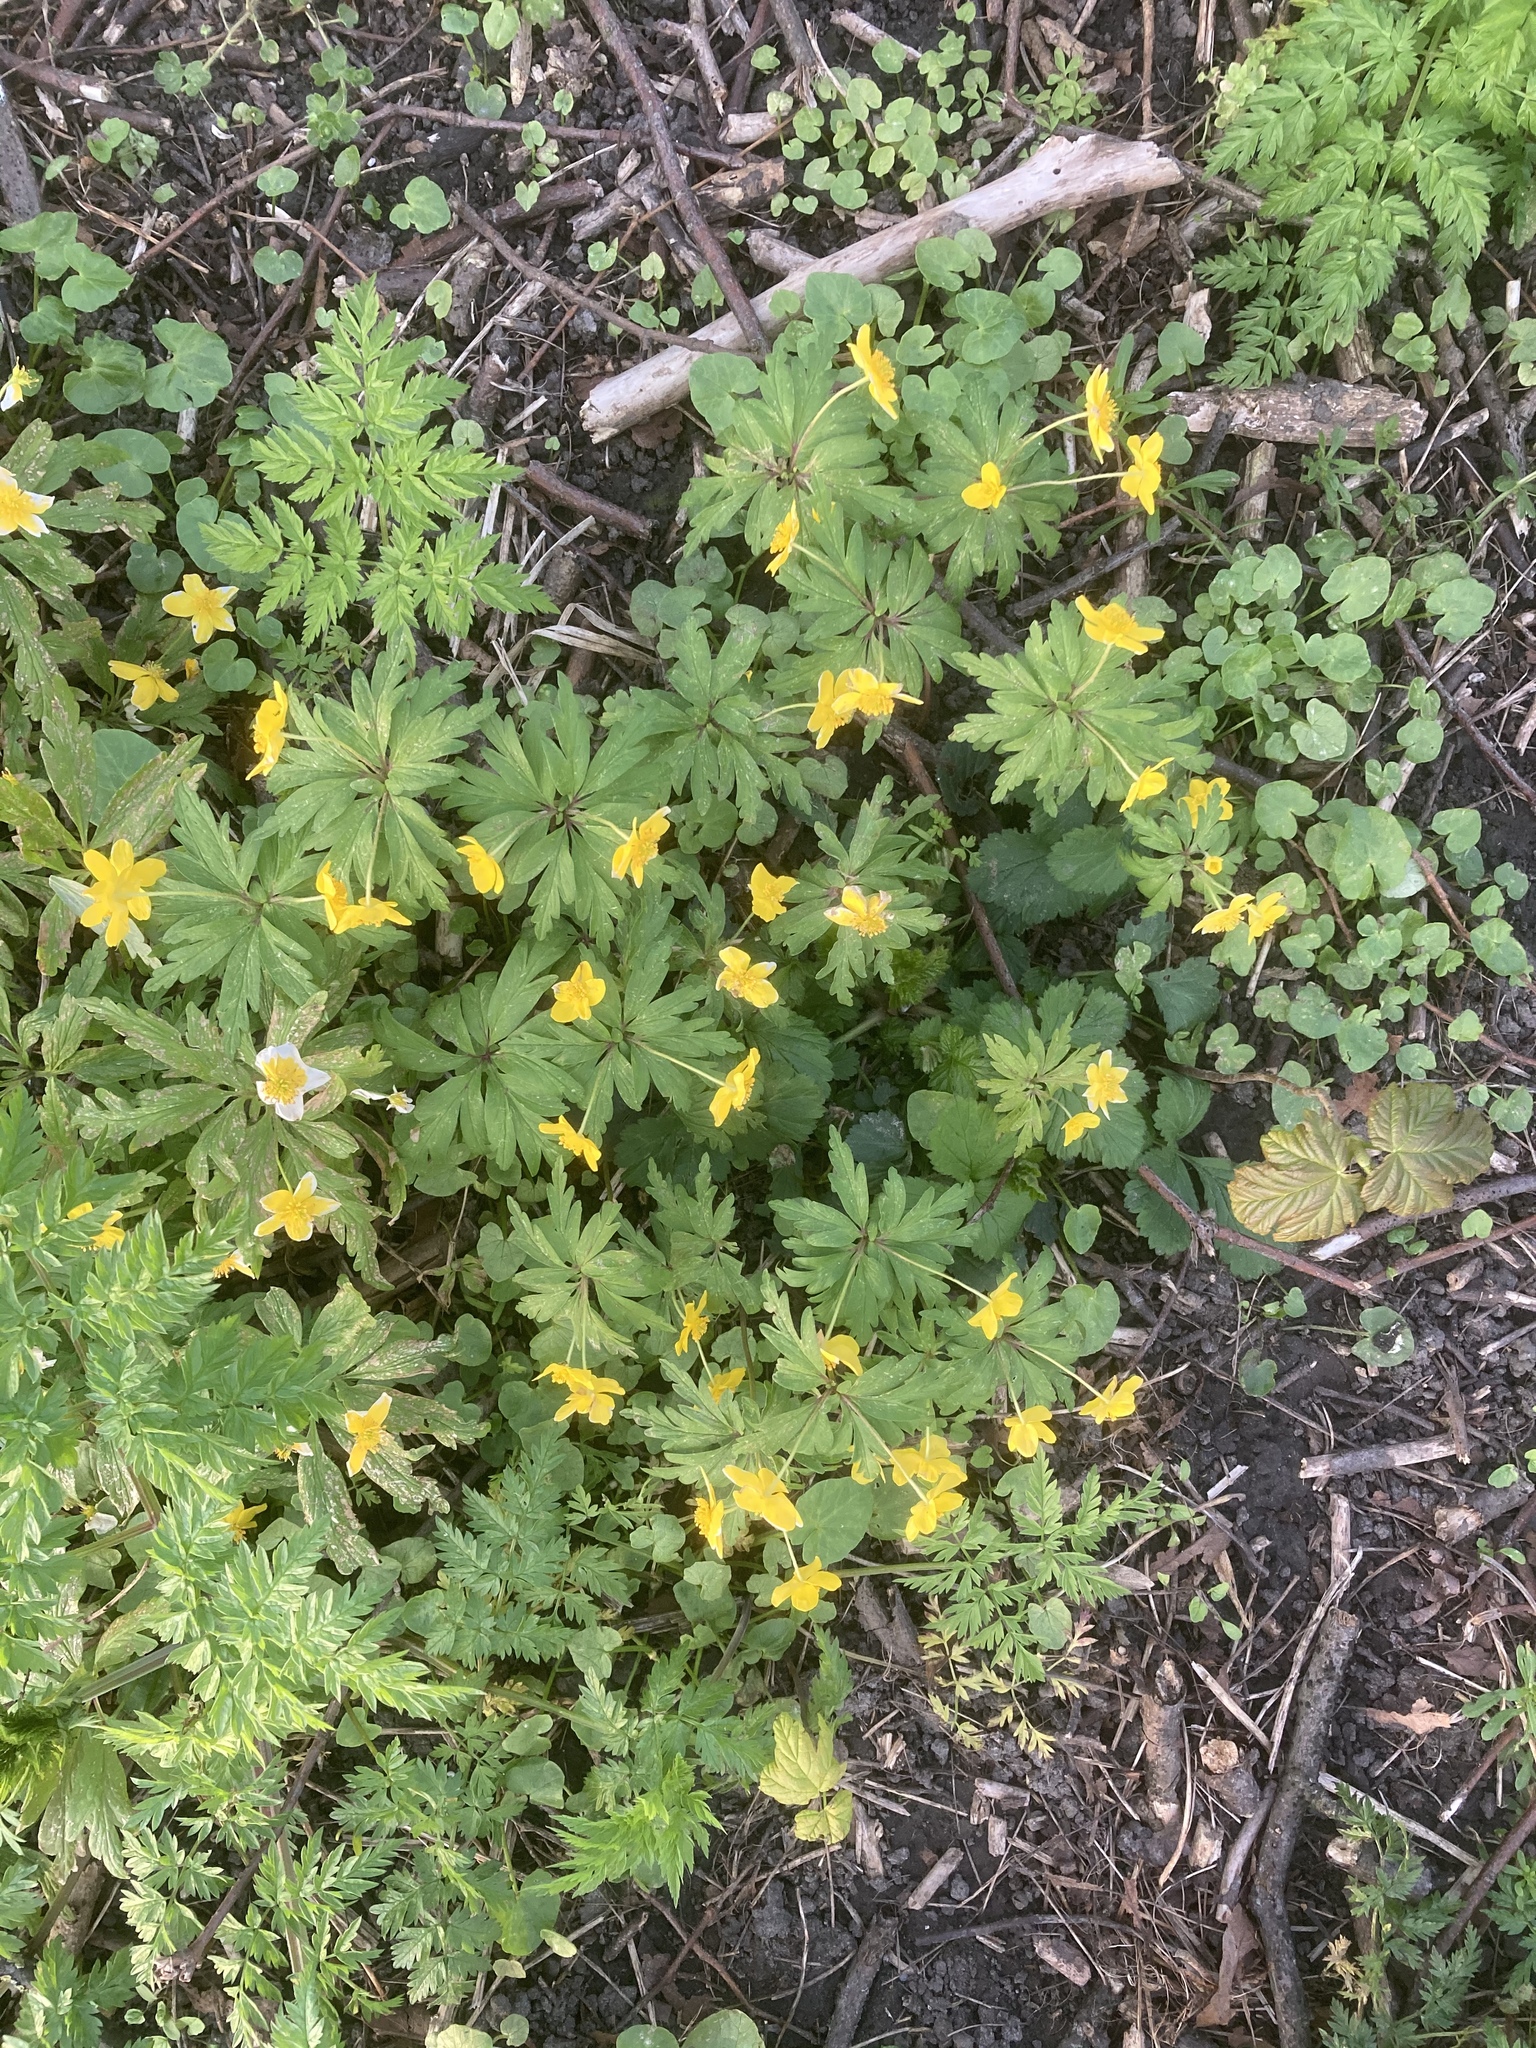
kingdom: Plantae
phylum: Tracheophyta
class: Magnoliopsida
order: Ranunculales
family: Ranunculaceae
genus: Anemone
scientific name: Anemone ranunculoides
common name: Yellow anemone
